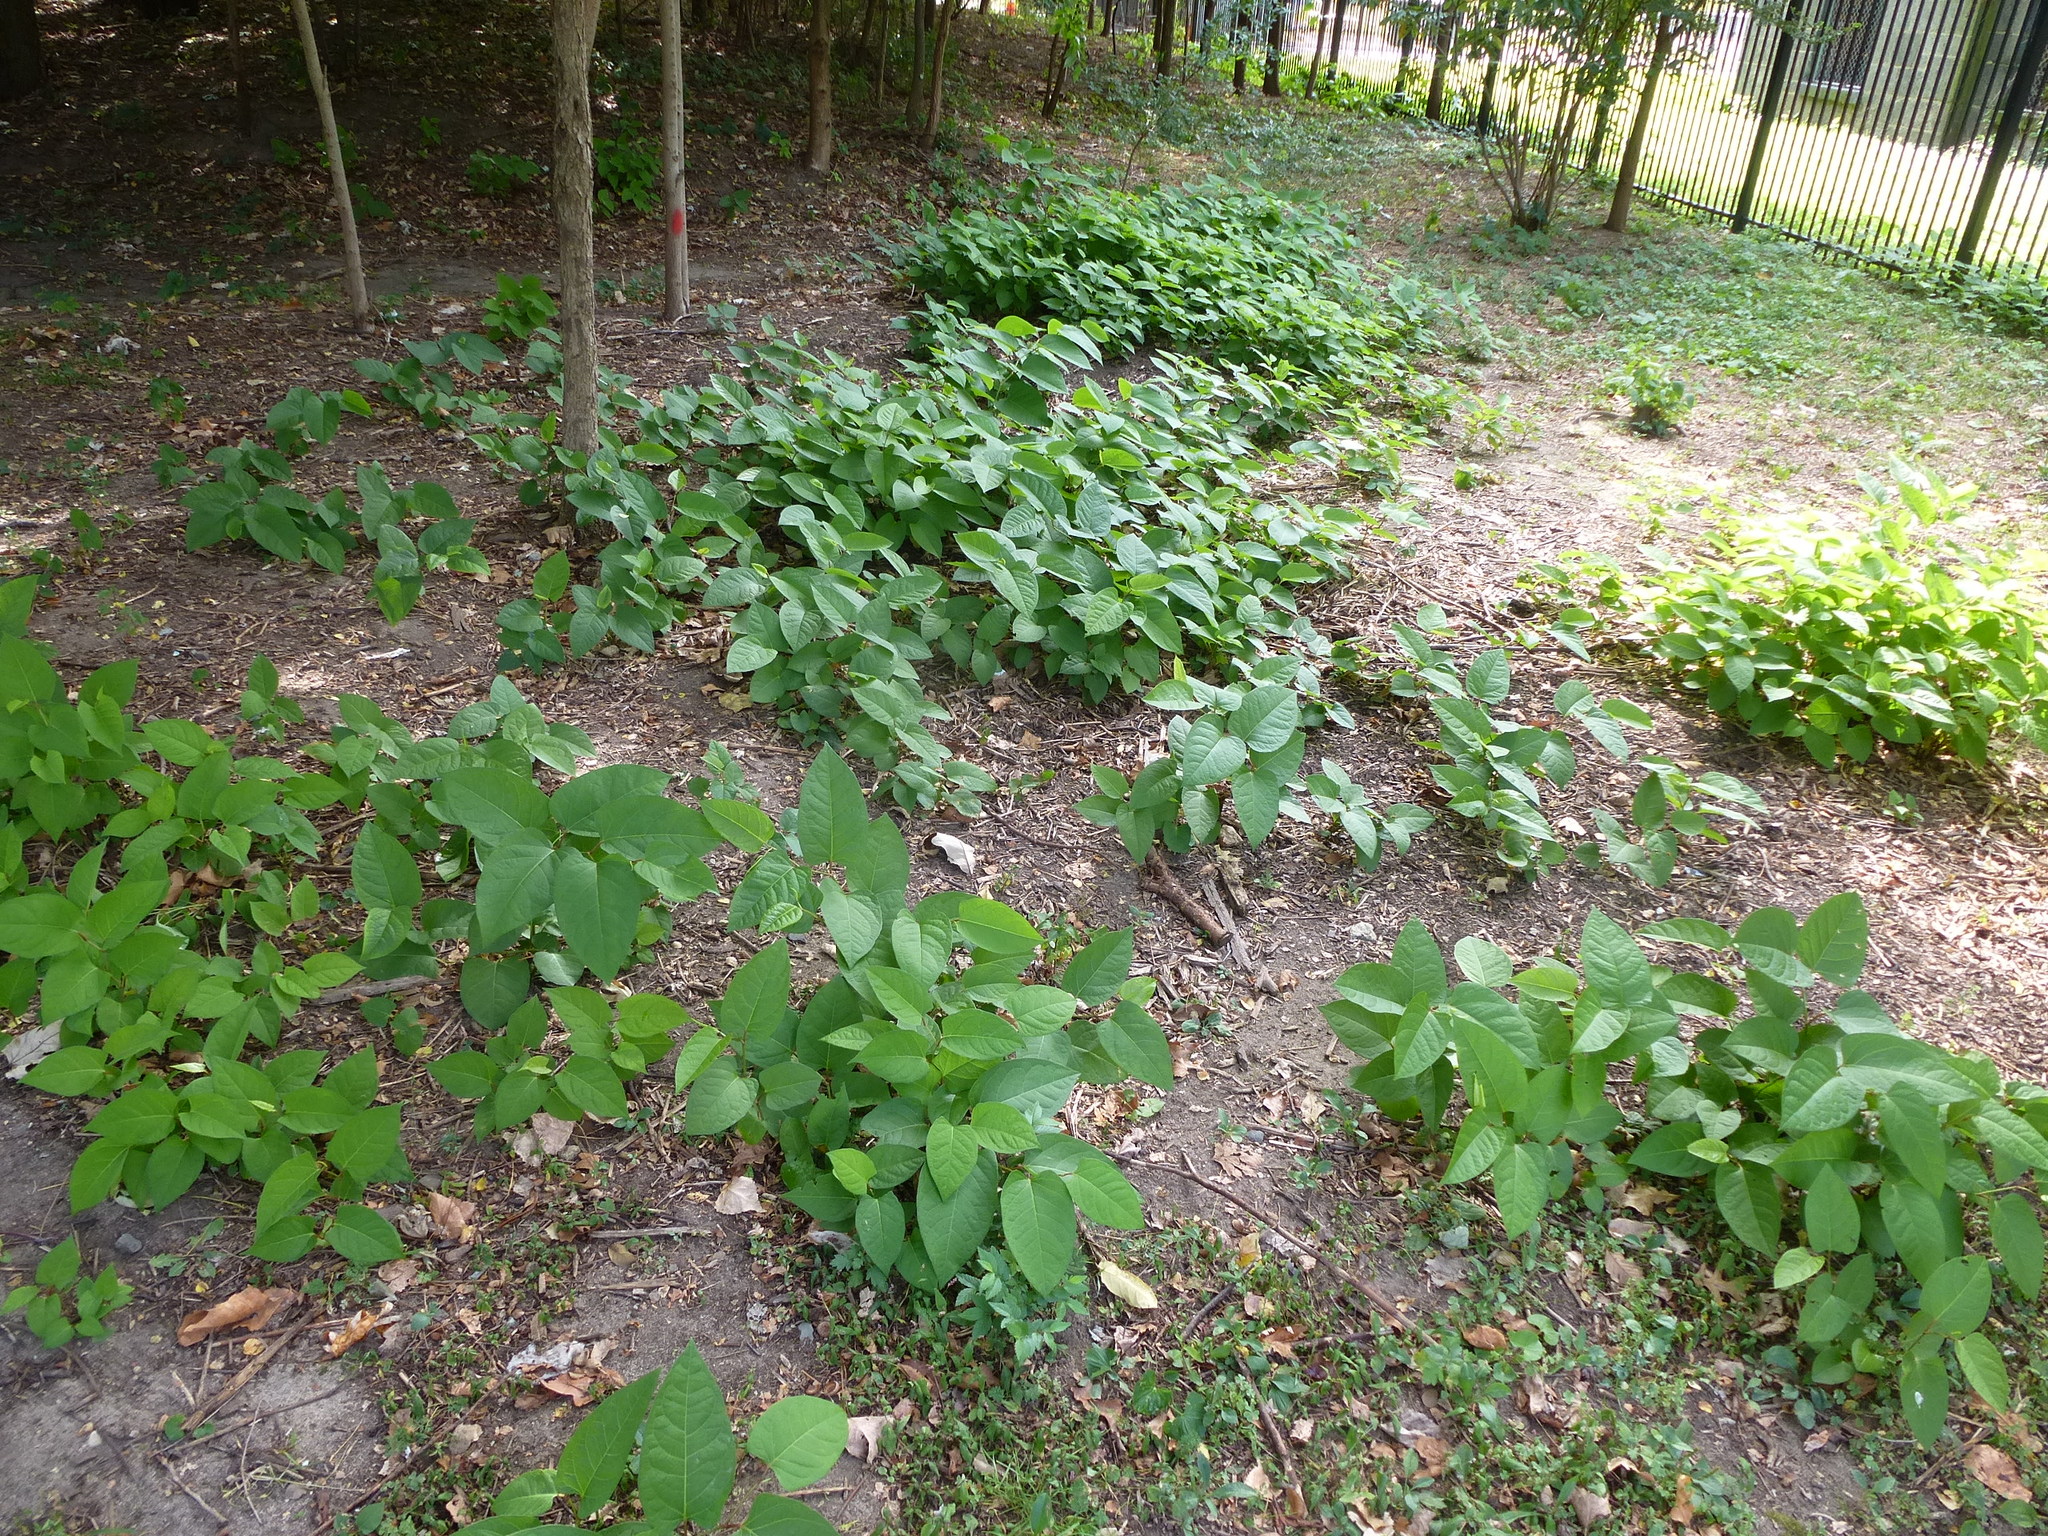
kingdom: Plantae
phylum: Tracheophyta
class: Magnoliopsida
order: Caryophyllales
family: Polygonaceae
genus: Reynoutria
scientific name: Reynoutria japonica
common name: Japanese knotweed
